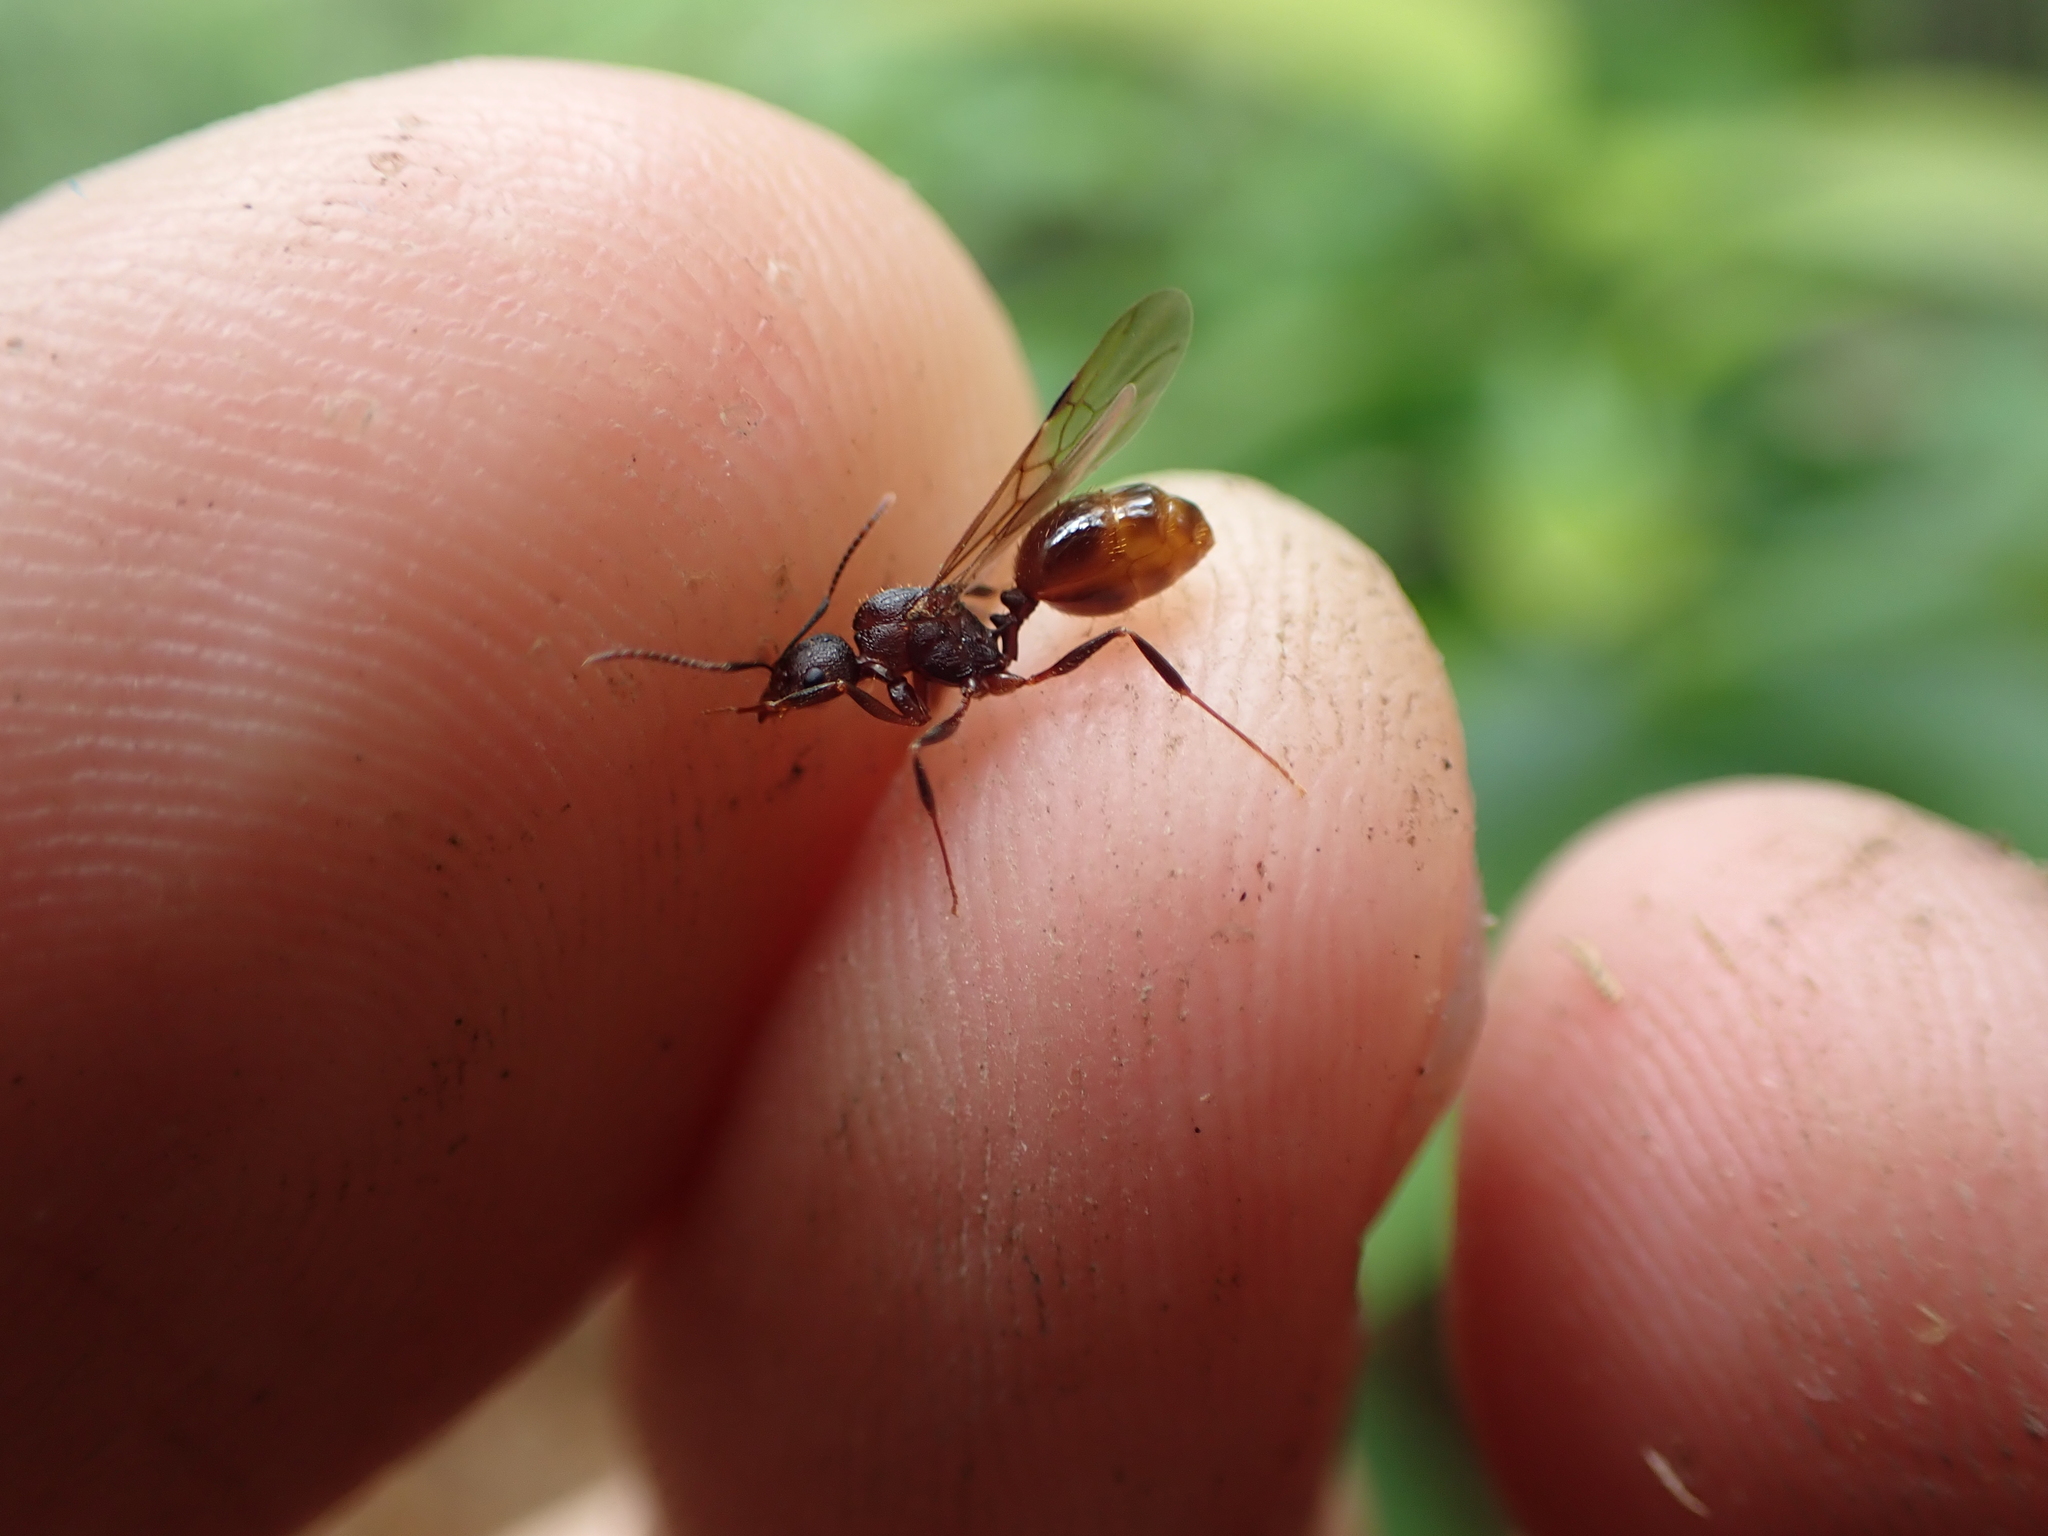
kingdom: Animalia
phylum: Arthropoda
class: Insecta
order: Hymenoptera
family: Formicidae
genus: Aphaenogaster
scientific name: Aphaenogaster fulva
